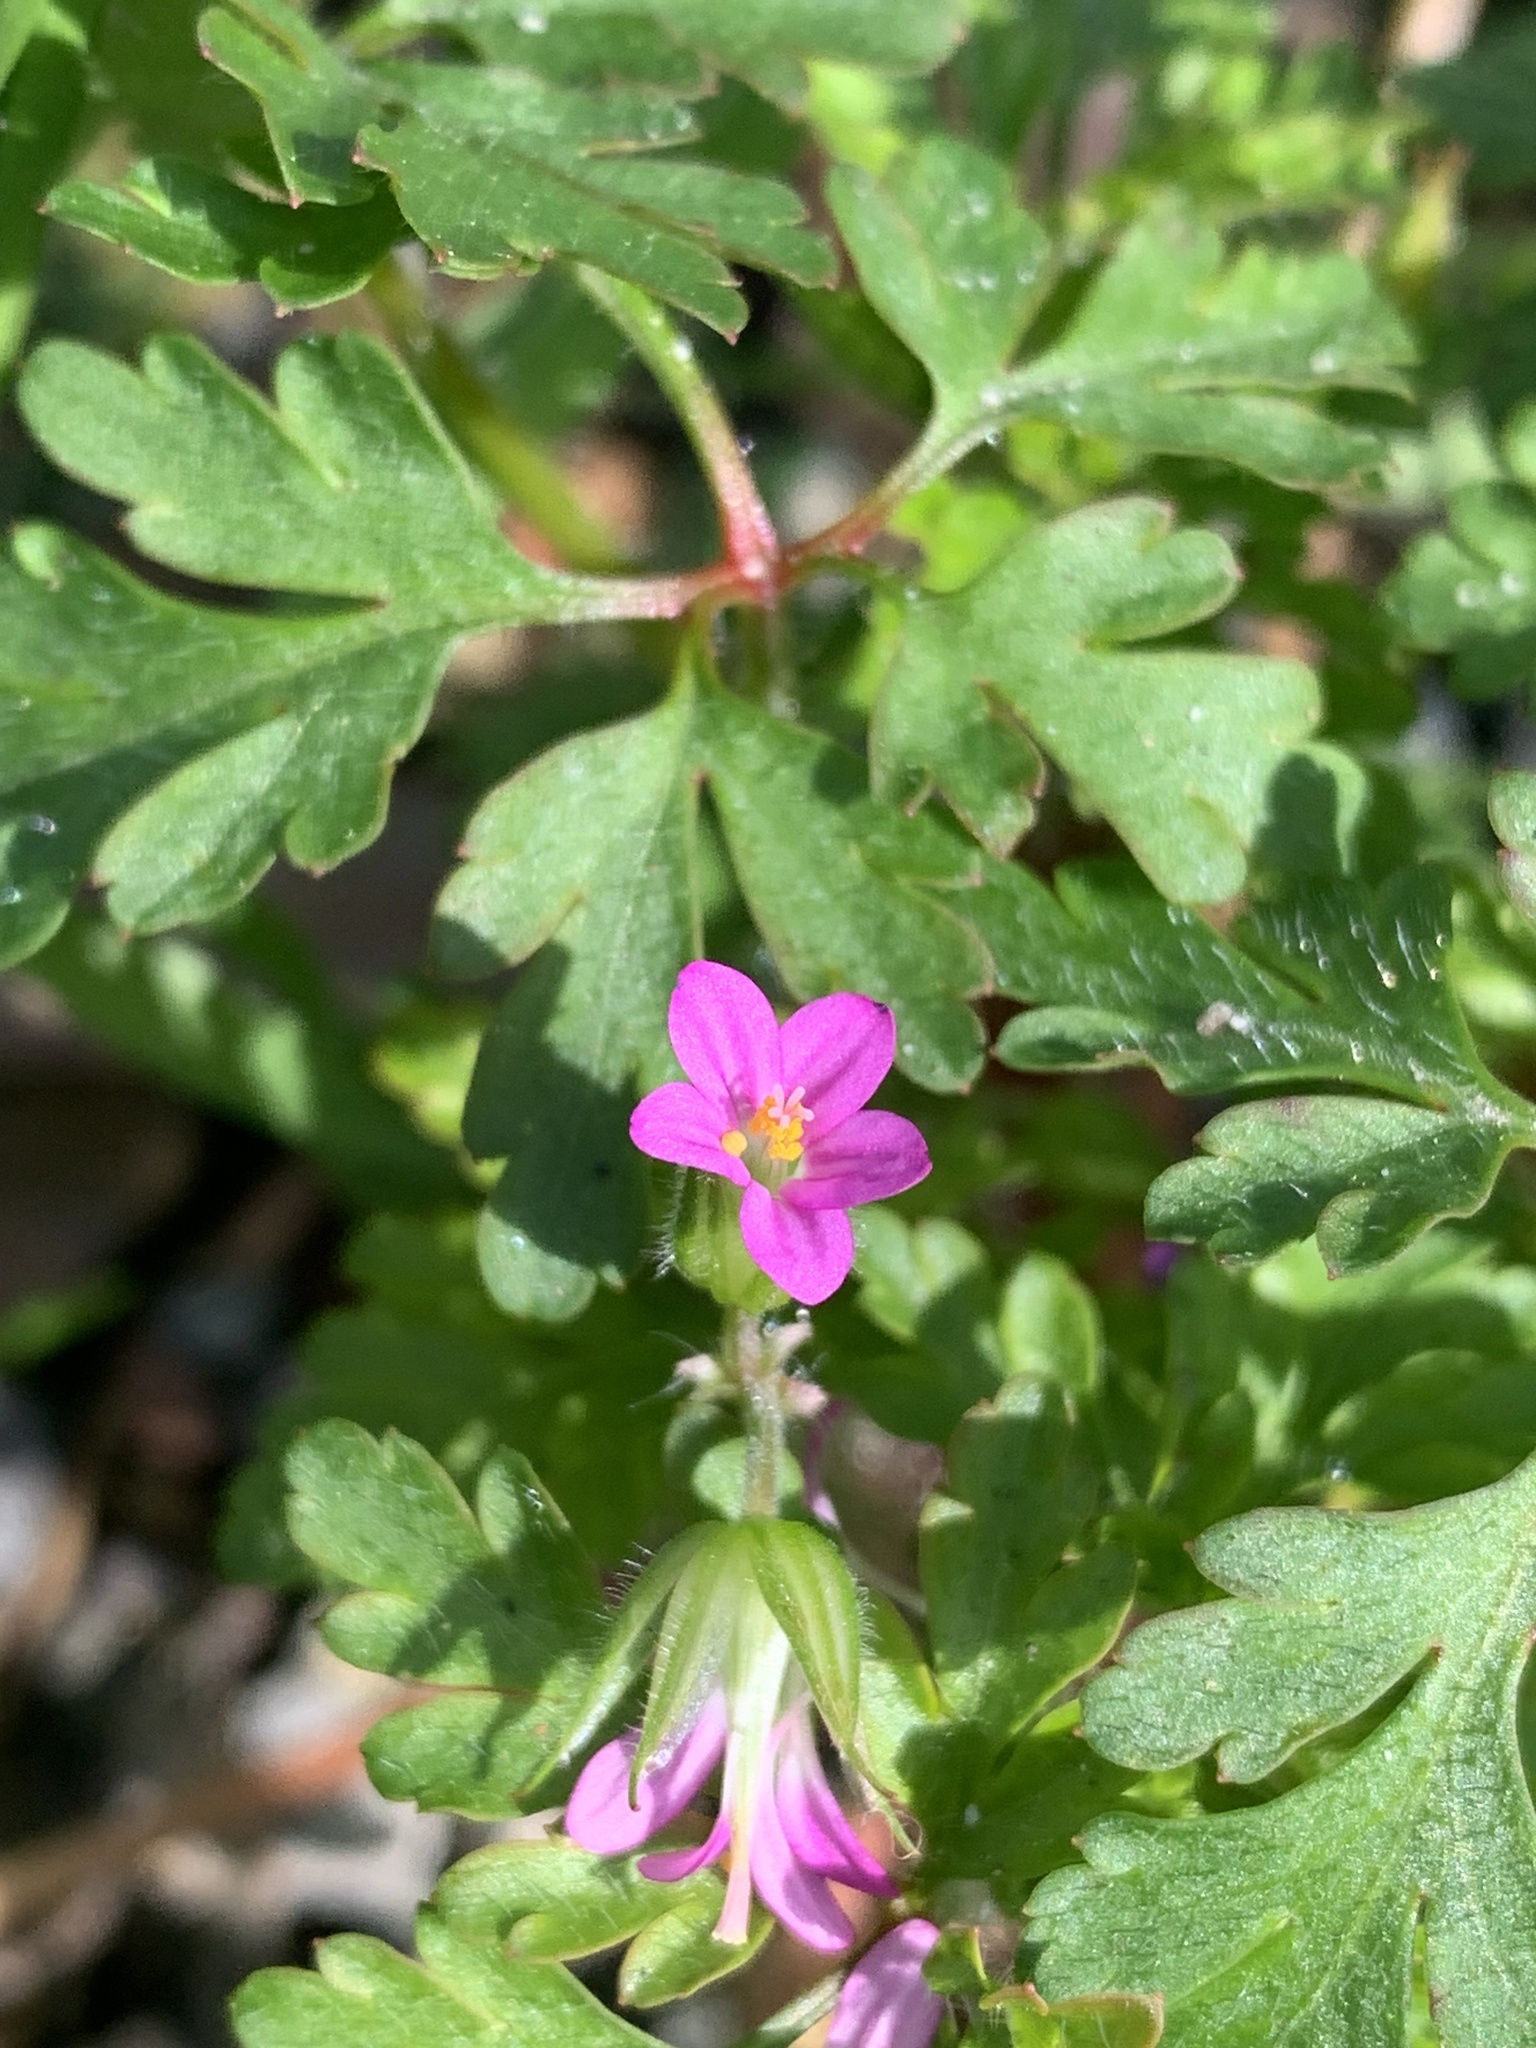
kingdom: Plantae
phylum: Tracheophyta
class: Magnoliopsida
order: Geraniales
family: Geraniaceae
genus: Geranium
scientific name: Geranium purpureum
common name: Little-robin
